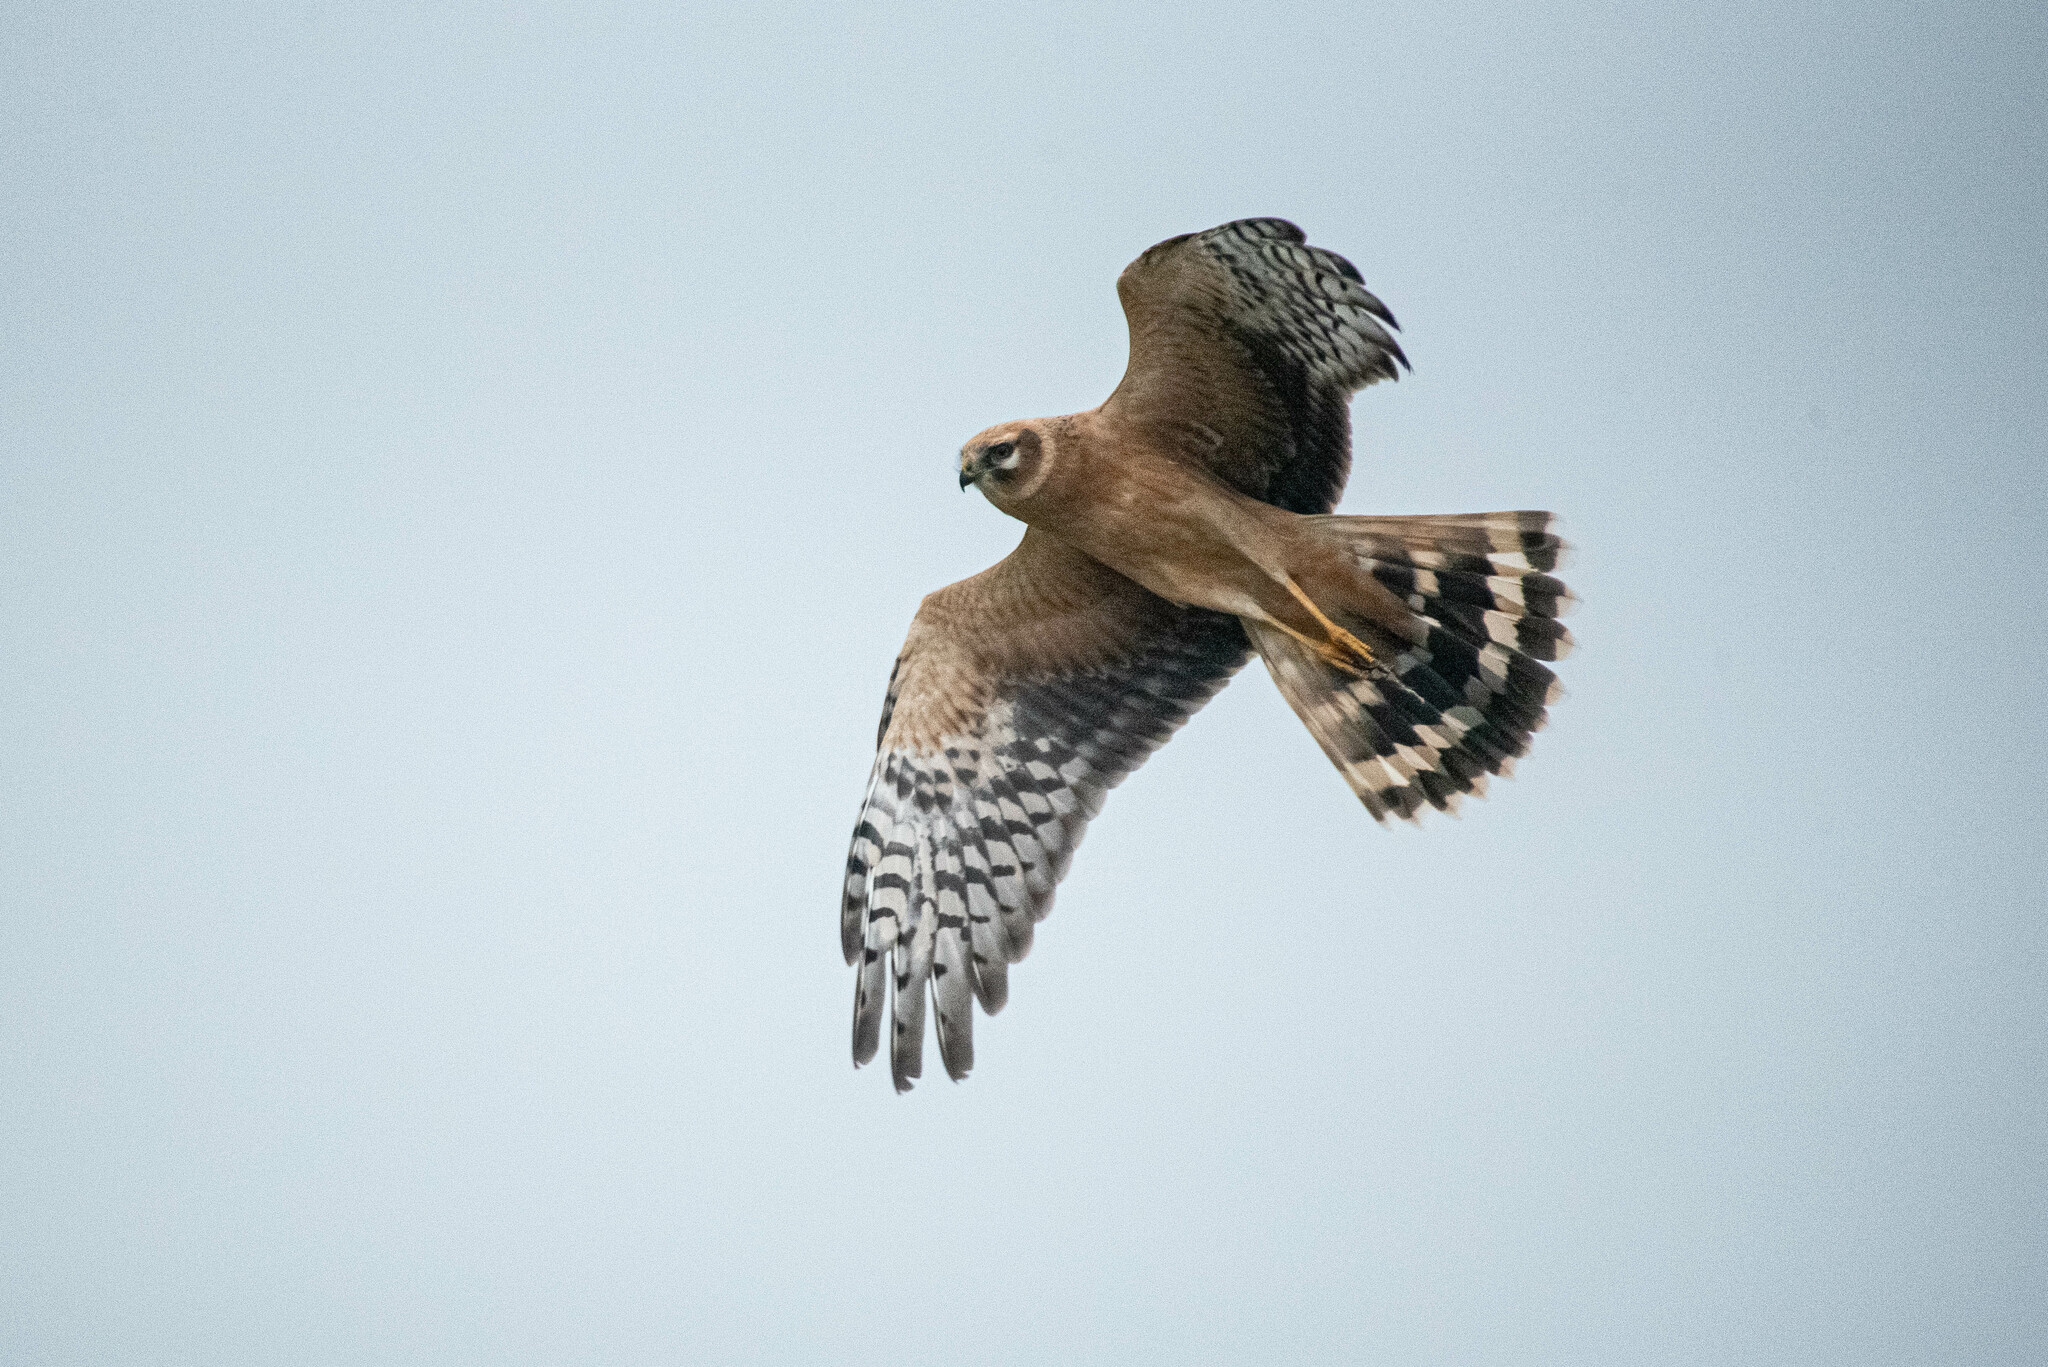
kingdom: Animalia
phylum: Chordata
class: Aves
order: Accipitriformes
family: Accipitridae
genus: Circus
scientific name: Circus macrourus
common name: Pallid harrier
